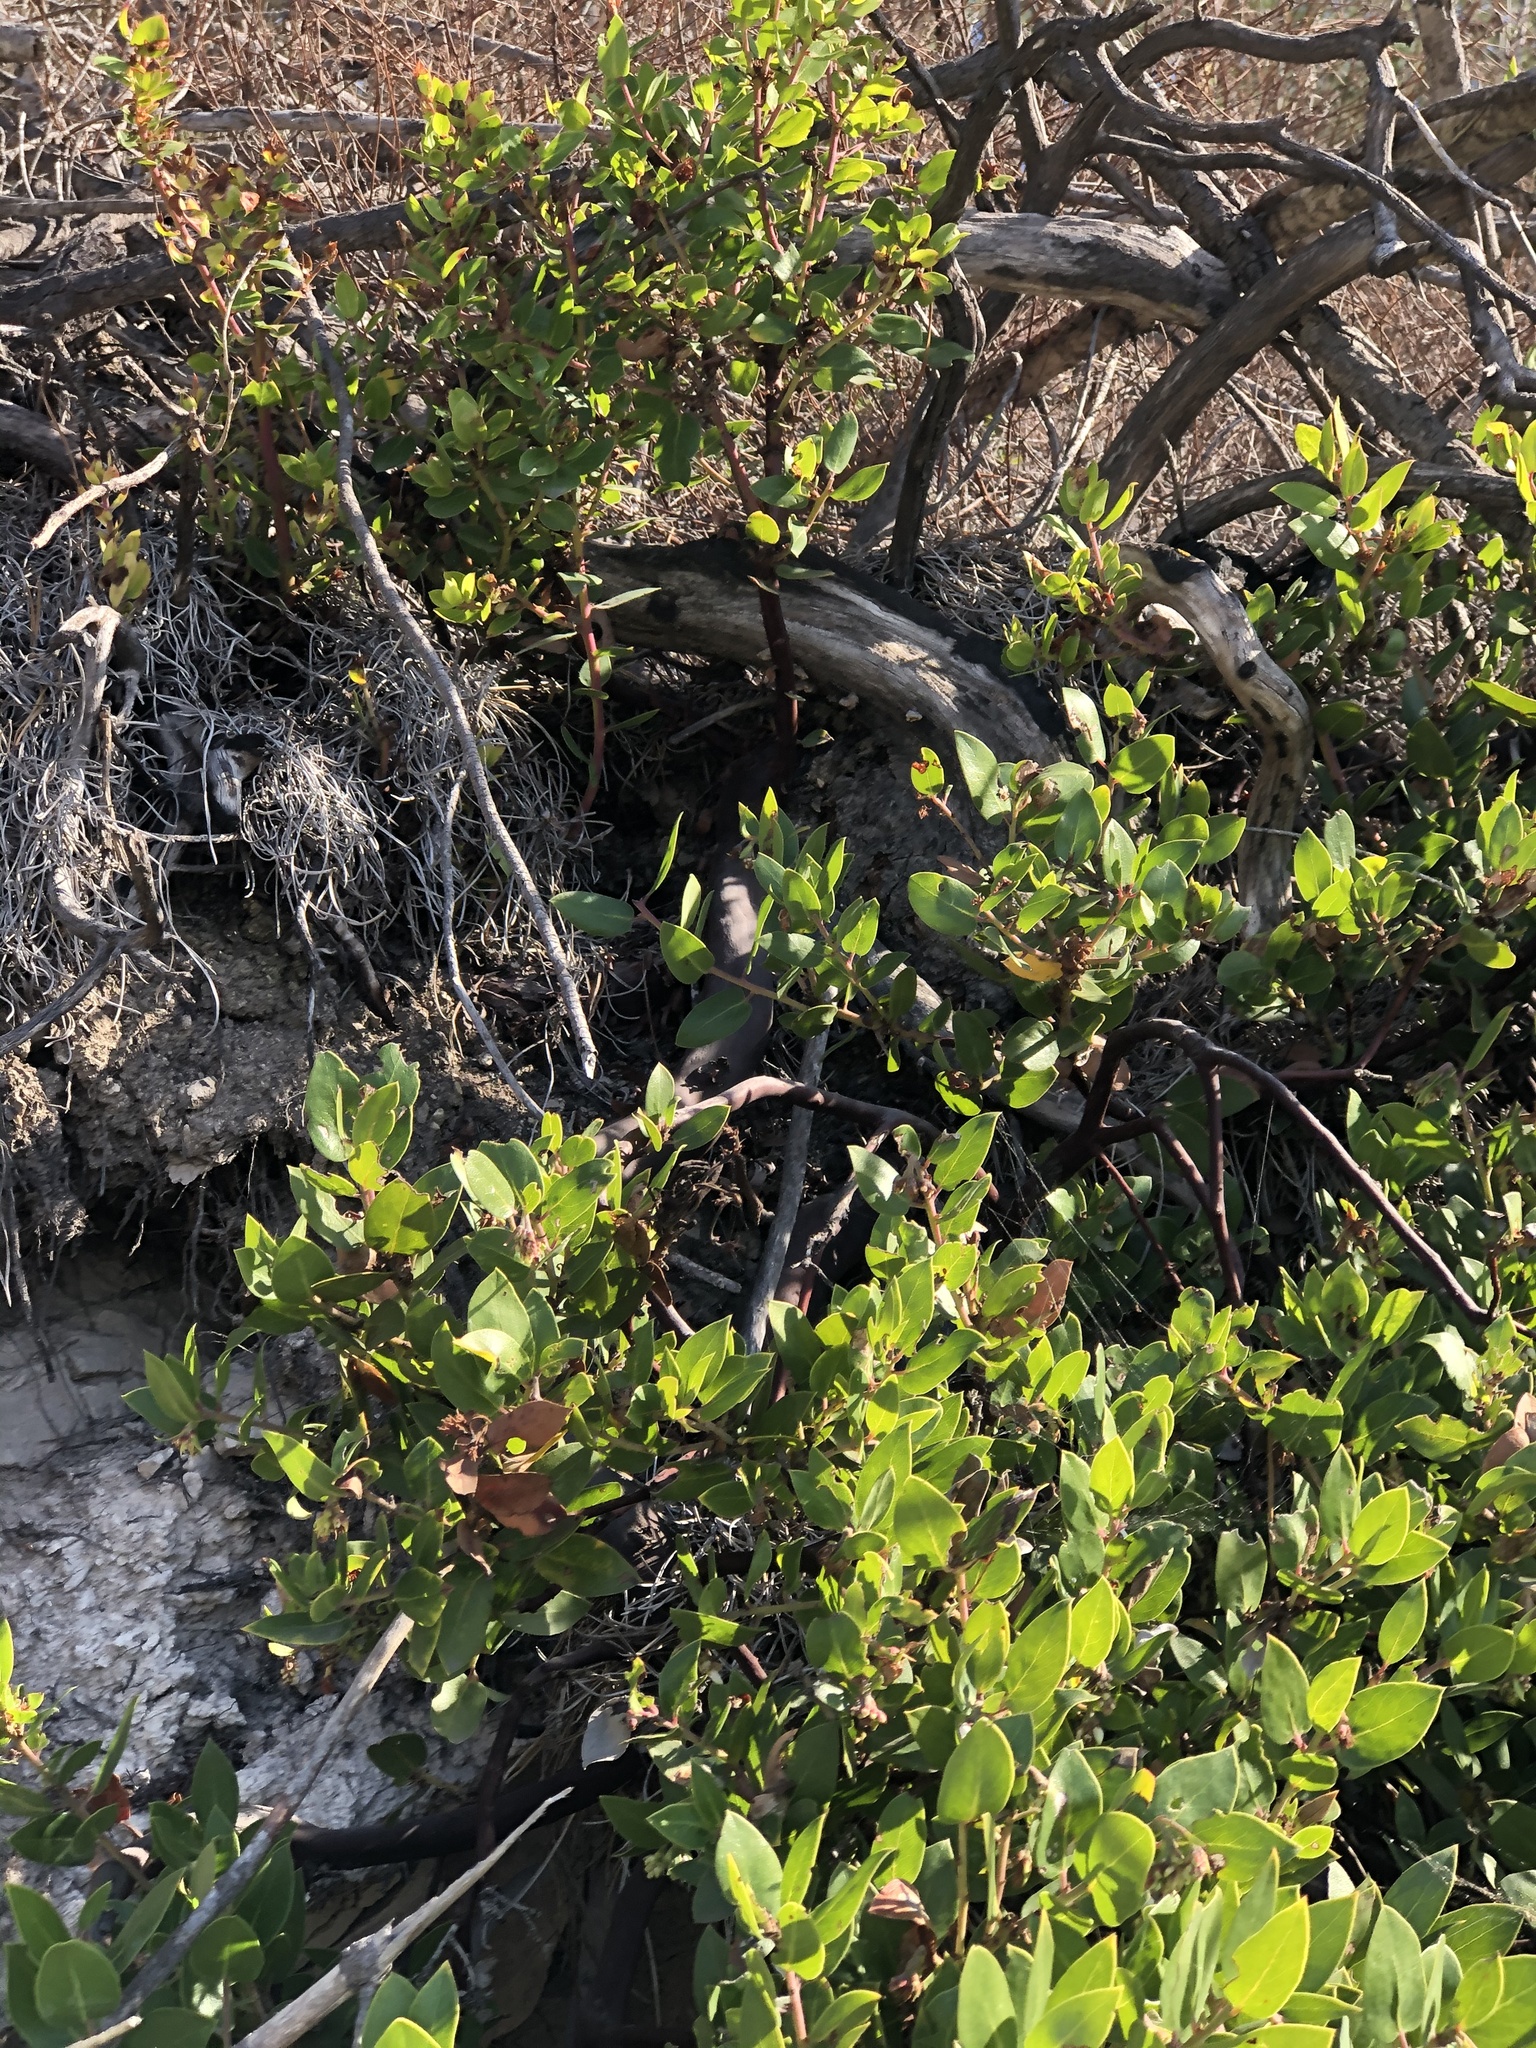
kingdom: Plantae
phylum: Tracheophyta
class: Magnoliopsida
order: Ericales
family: Ericaceae
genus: Arctostaphylos
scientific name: Arctostaphylos crustacea
